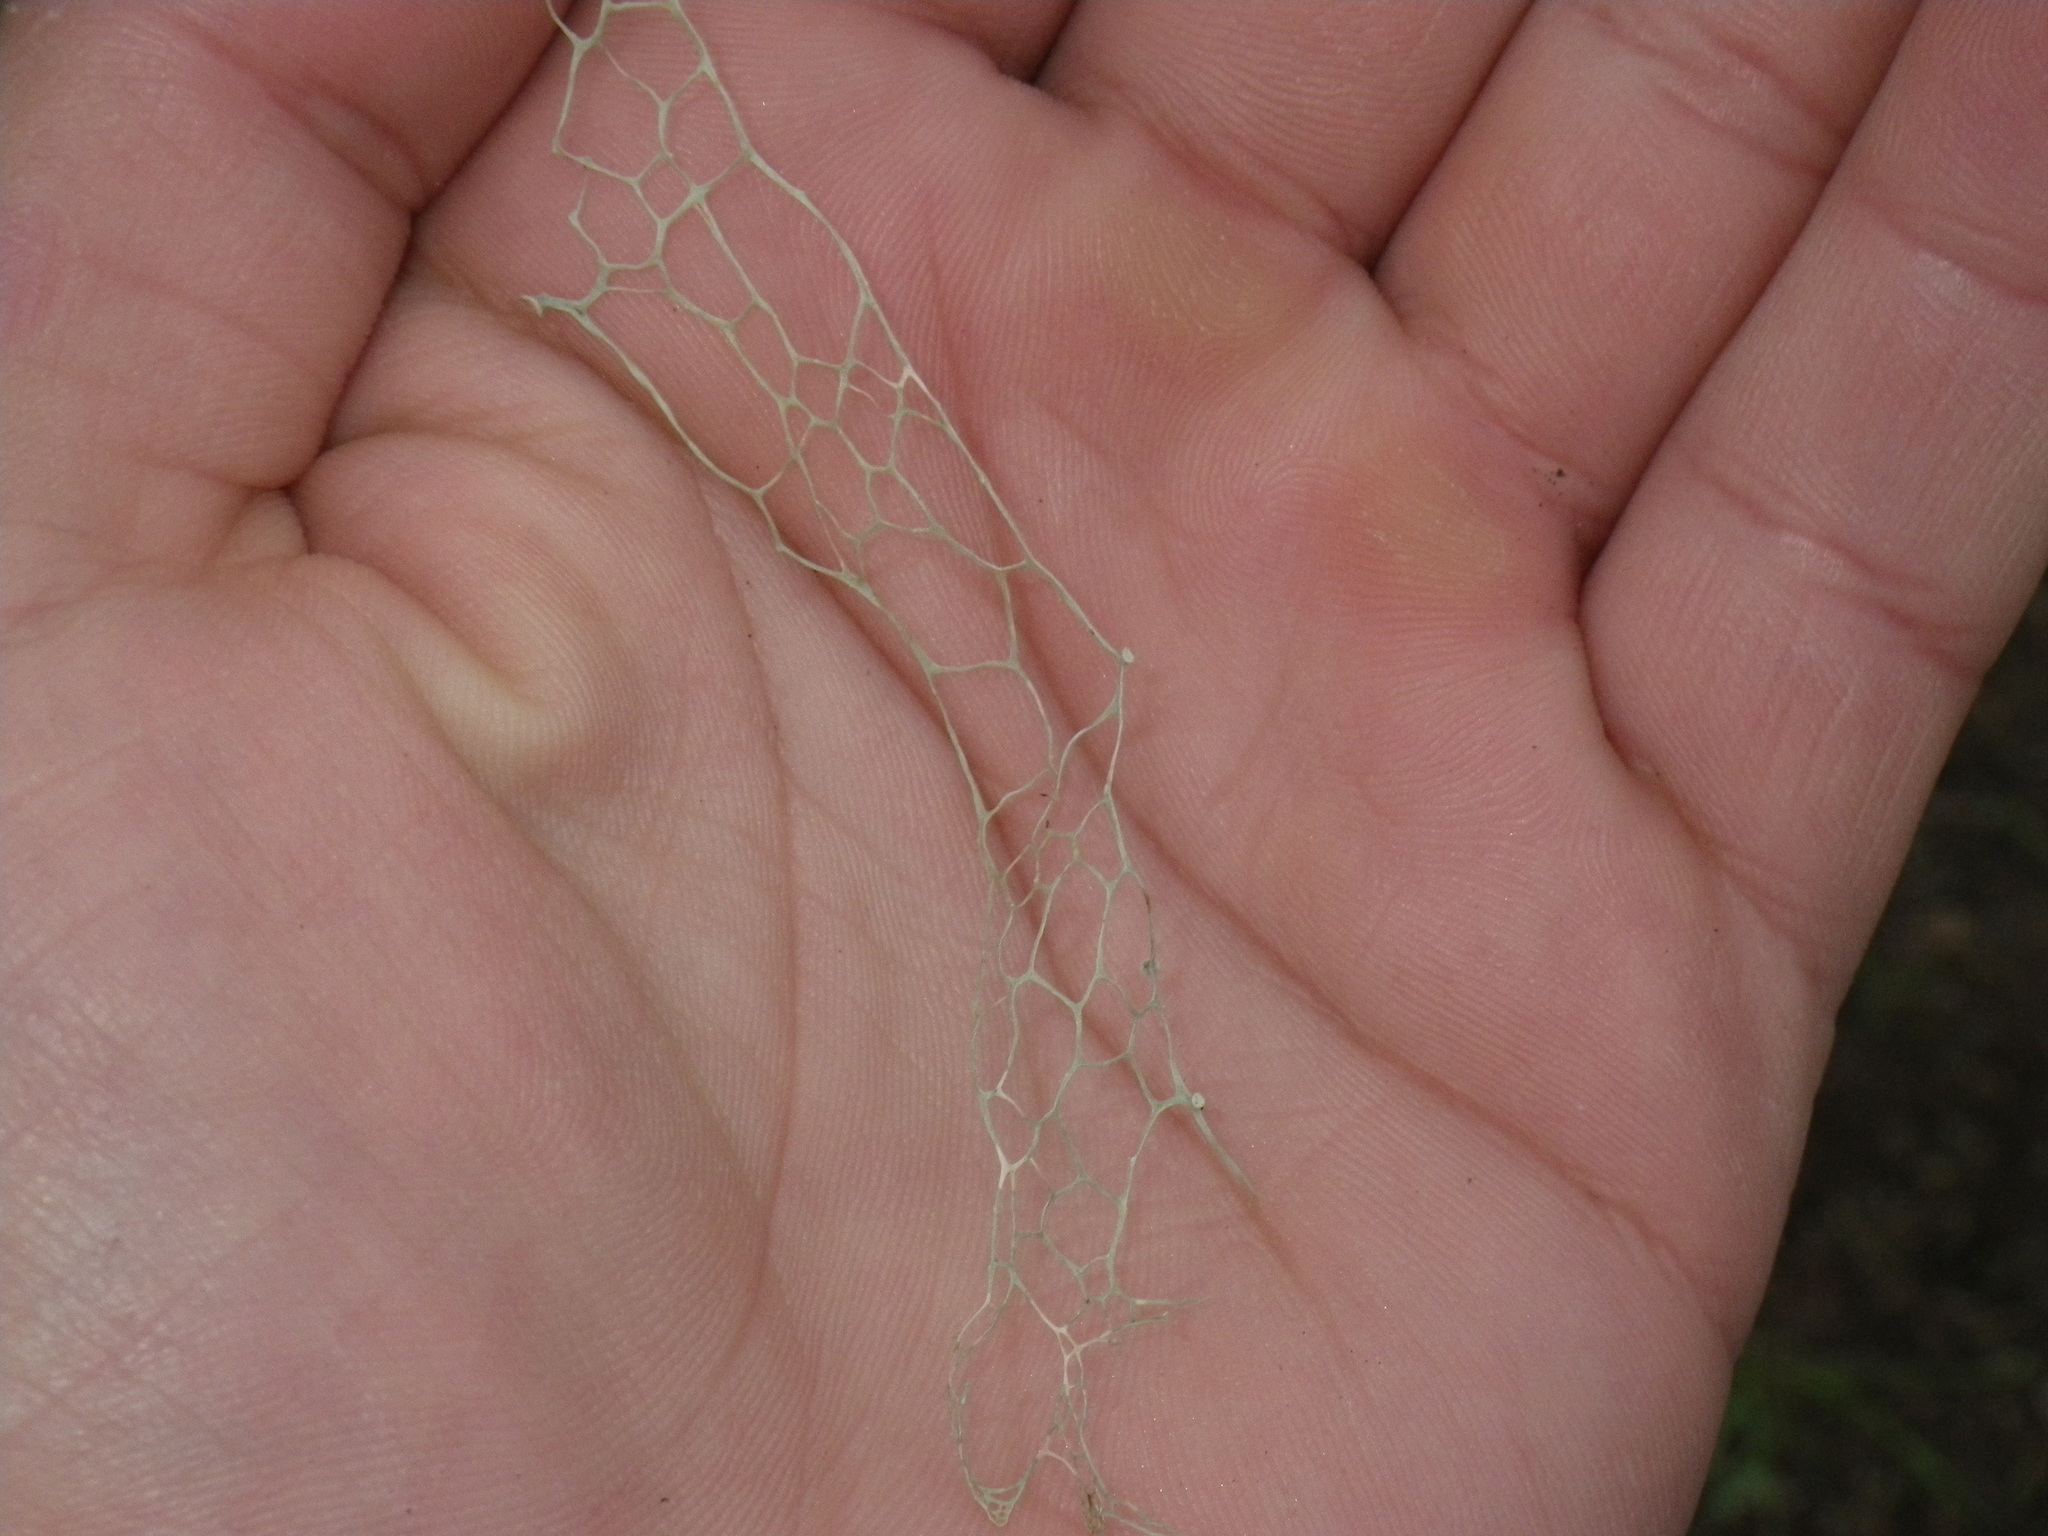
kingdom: Fungi
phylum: Ascomycota
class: Lecanoromycetes
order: Lecanorales
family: Ramalinaceae
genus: Ramalina
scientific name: Ramalina menziesii
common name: Lace lichen
